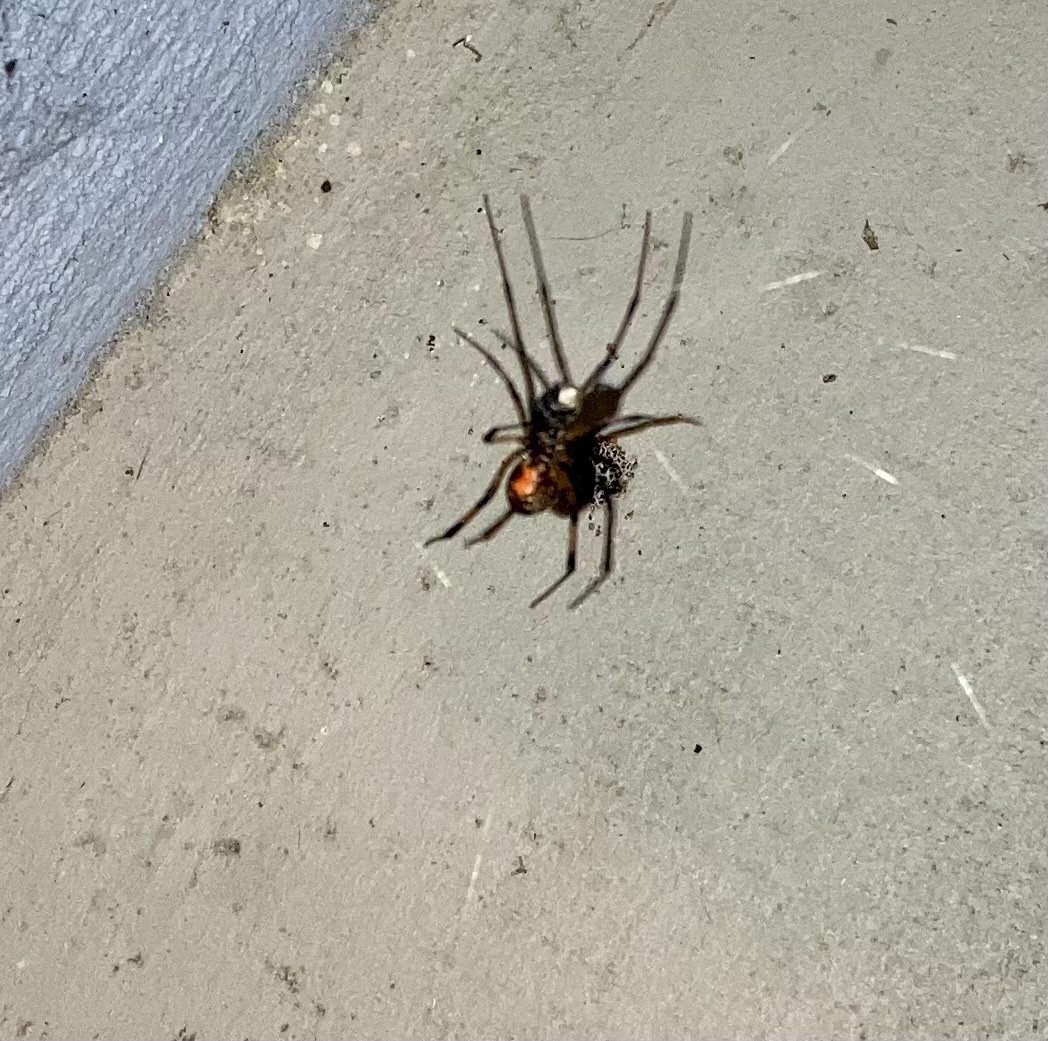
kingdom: Animalia
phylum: Arthropoda
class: Arachnida
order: Araneae
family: Theridiidae
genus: Latrodectus
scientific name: Latrodectus geometricus
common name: Brown widow spider
